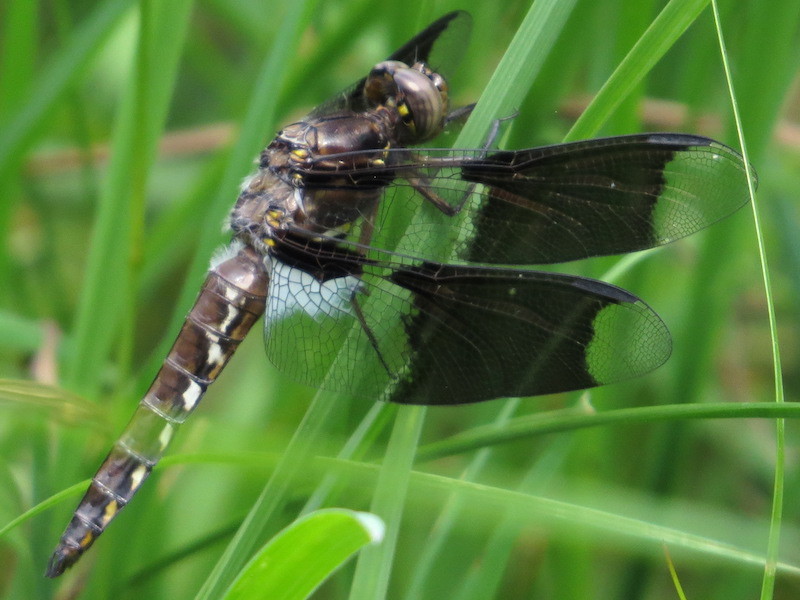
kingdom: Animalia
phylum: Arthropoda
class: Insecta
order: Odonata
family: Libellulidae
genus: Plathemis
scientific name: Plathemis lydia
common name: Common whitetail
